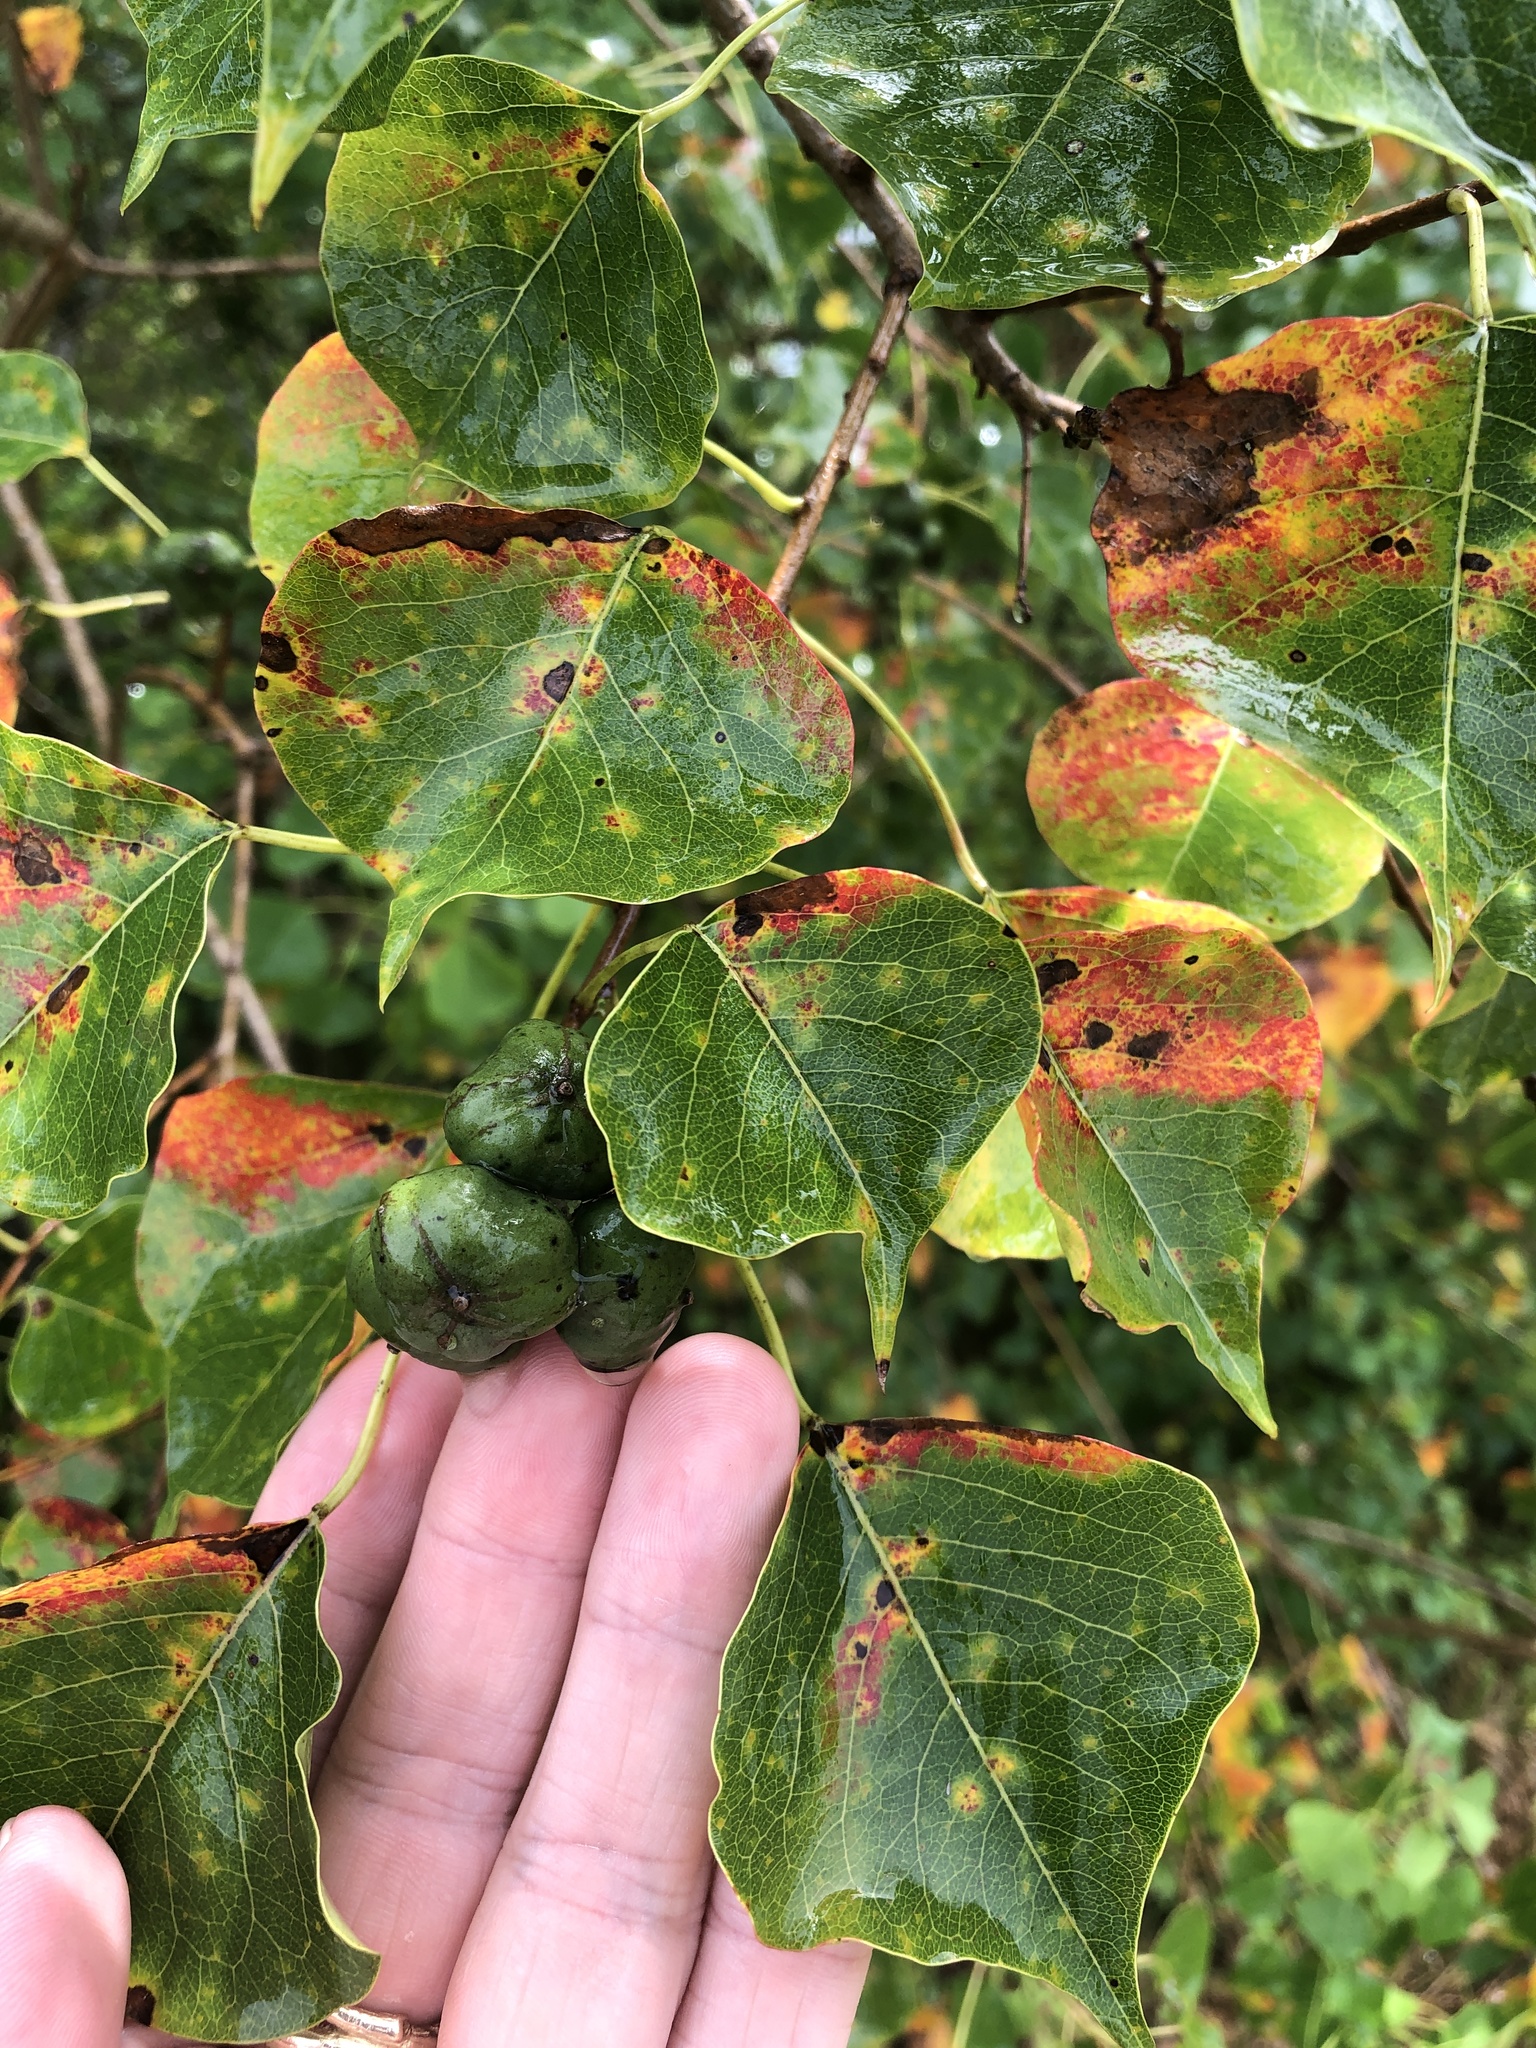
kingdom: Plantae
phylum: Tracheophyta
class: Magnoliopsida
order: Malpighiales
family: Euphorbiaceae
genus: Triadica
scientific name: Triadica sebifera
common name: Chinese tallow
